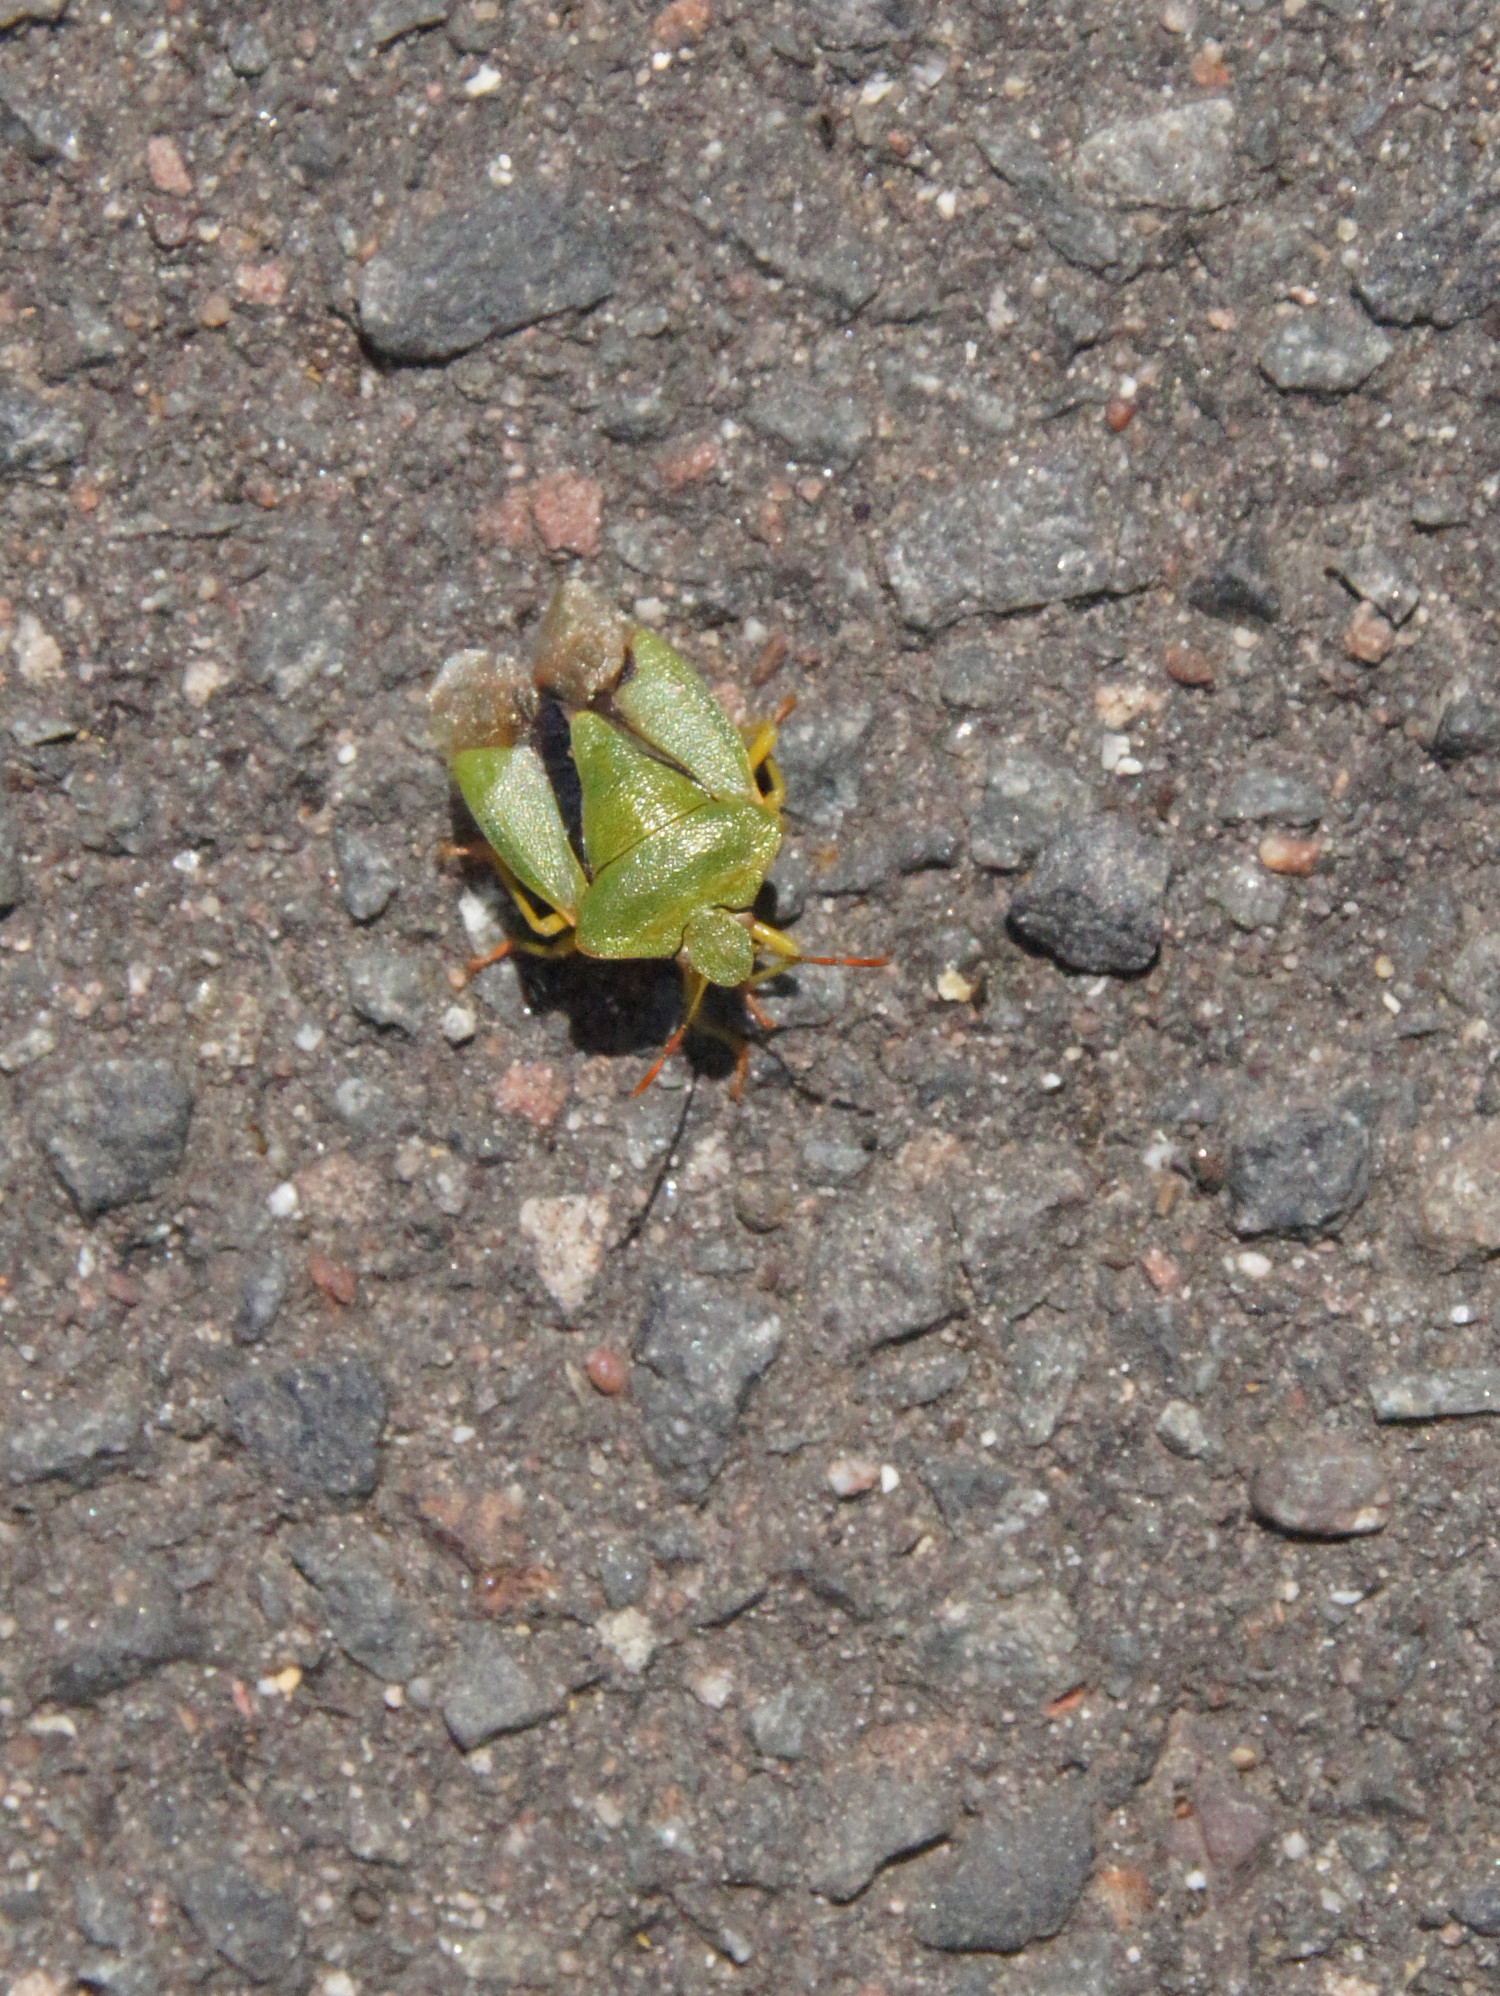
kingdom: Animalia
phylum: Arthropoda
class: Insecta
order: Hemiptera
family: Pentatomidae
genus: Palomena
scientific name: Palomena prasina
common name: Green shieldbug
